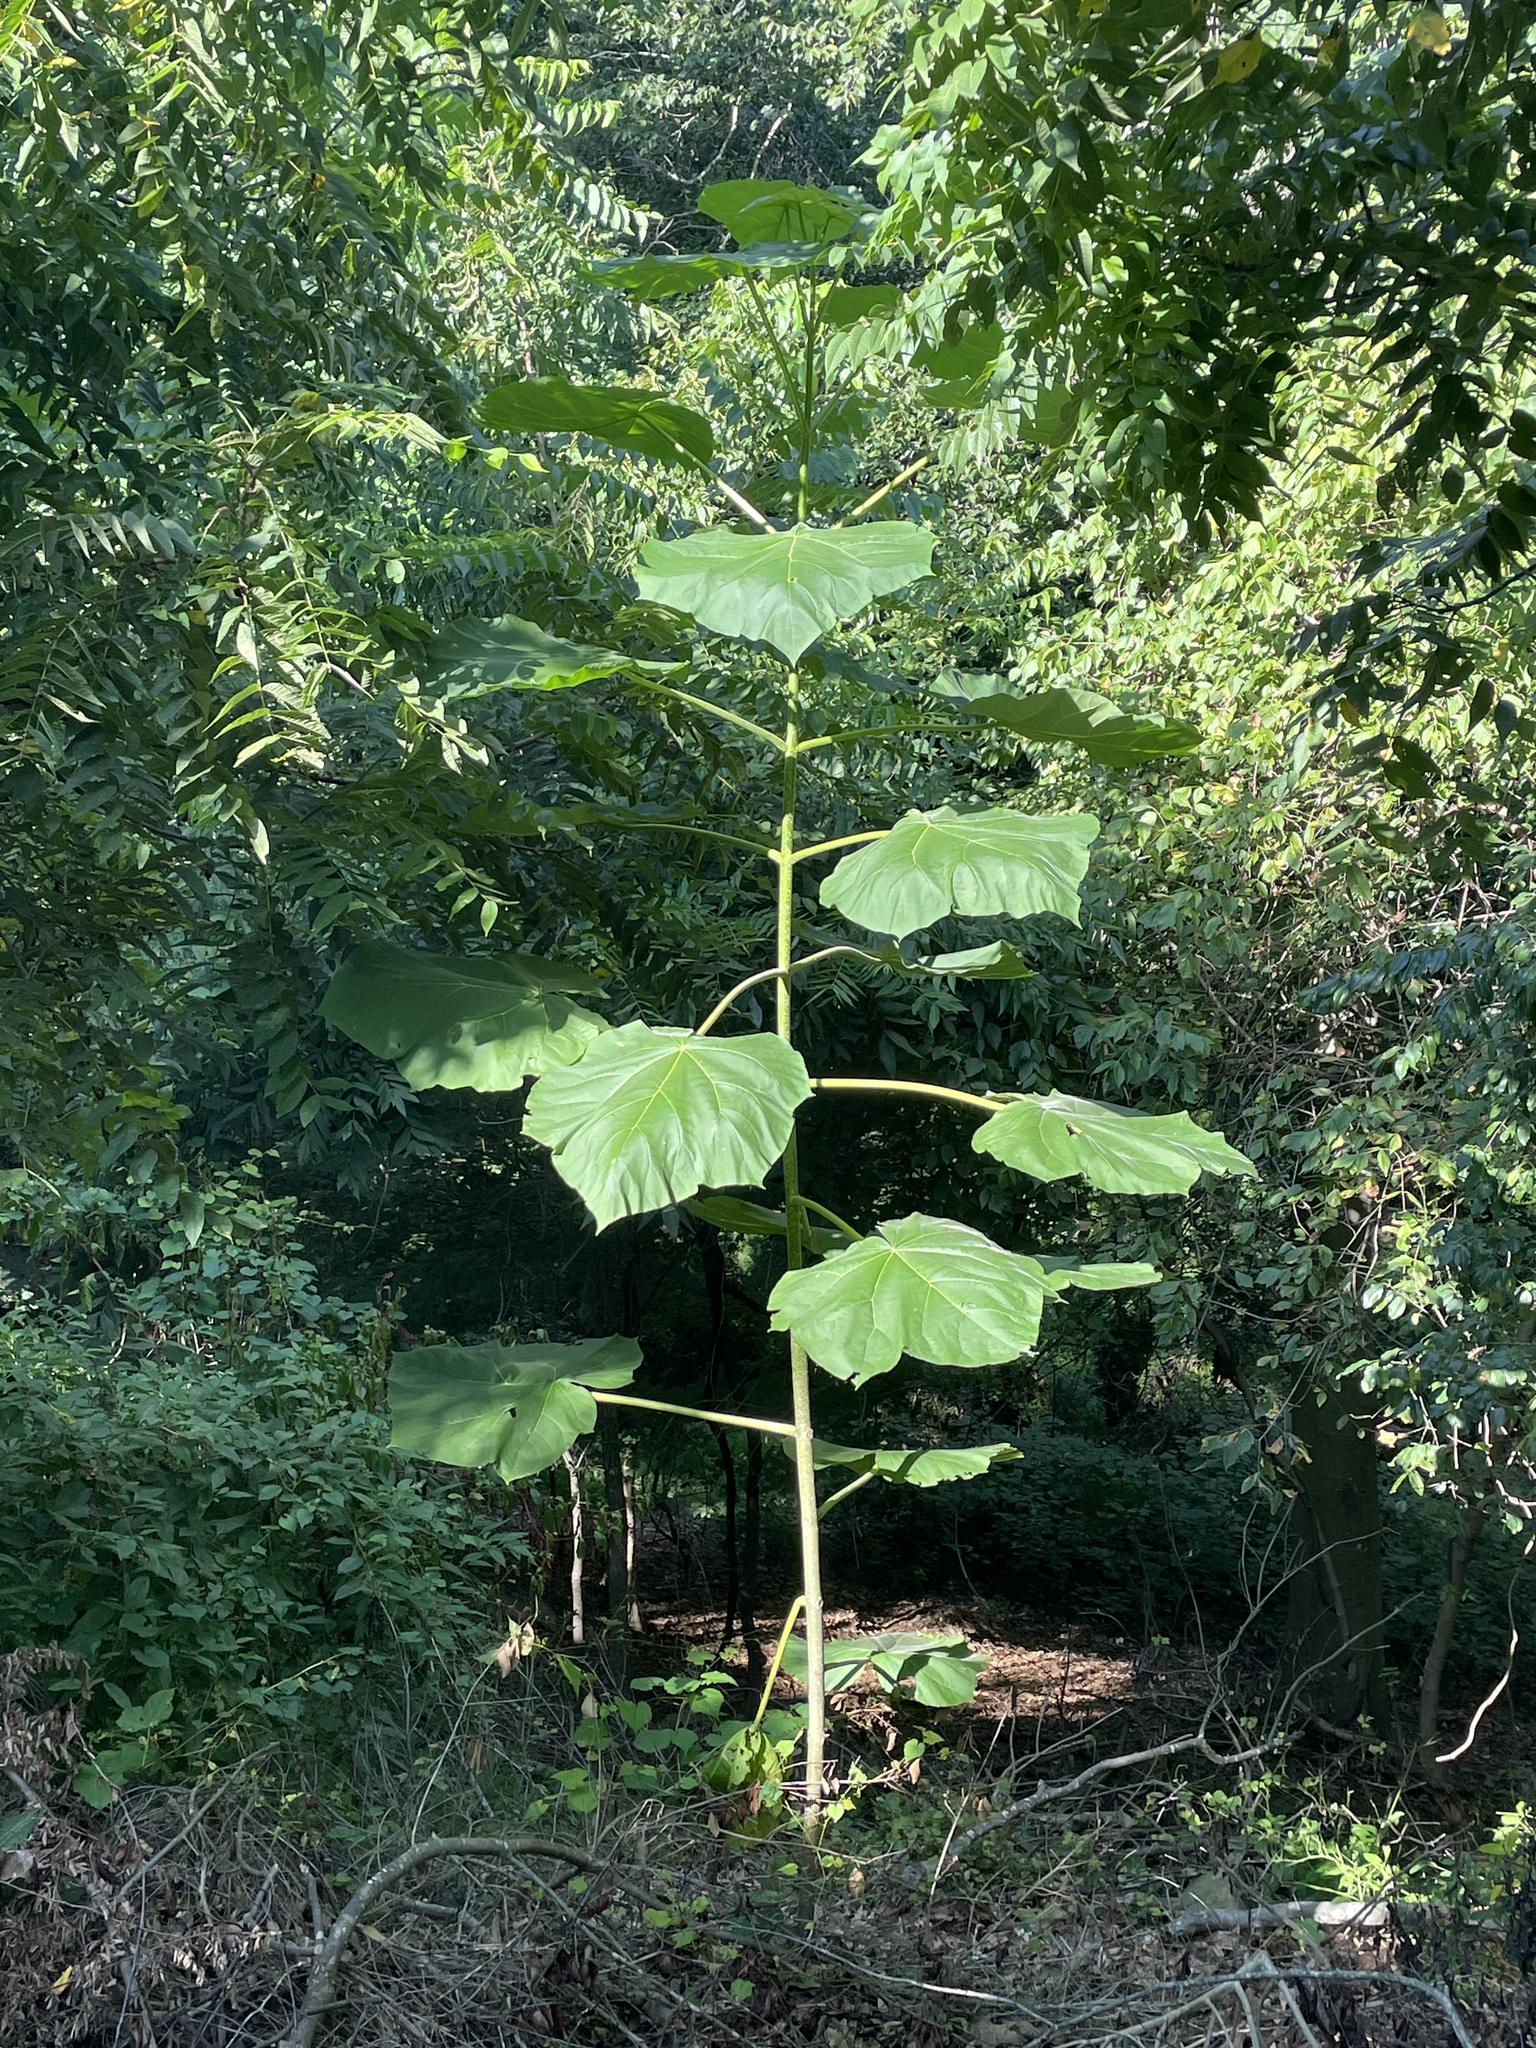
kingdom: Plantae
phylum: Tracheophyta
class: Magnoliopsida
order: Lamiales
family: Paulowniaceae
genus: Paulownia
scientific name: Paulownia tomentosa
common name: Foxglove-tree
